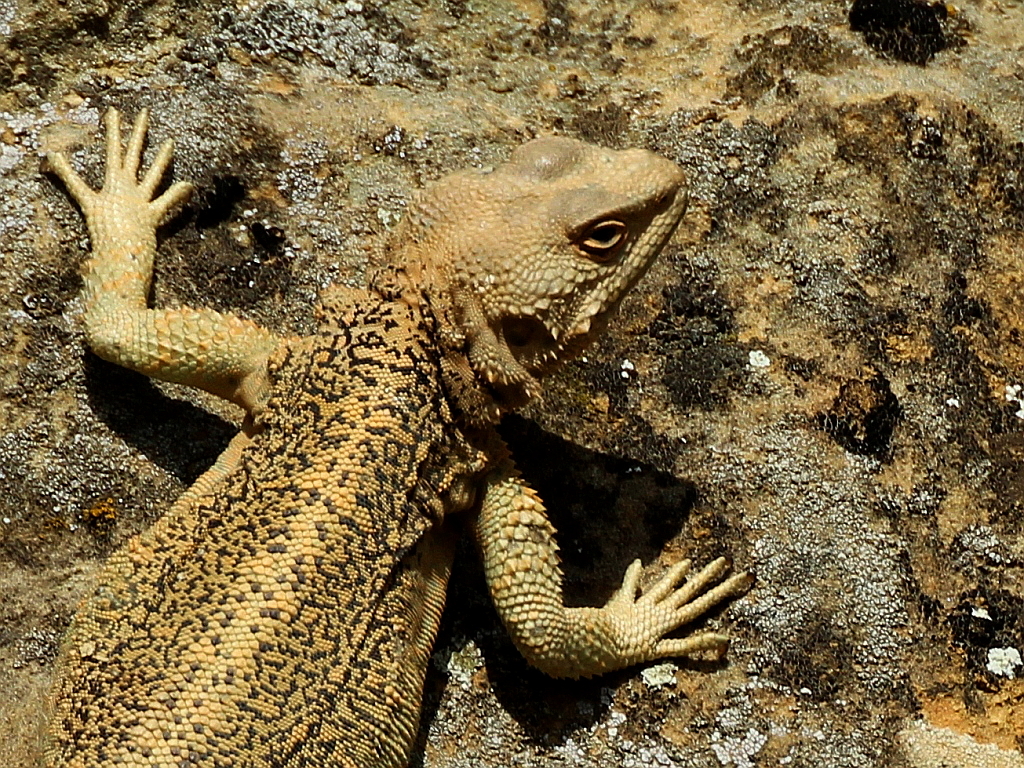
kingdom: Animalia
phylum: Chordata
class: Squamata
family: Agamidae
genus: Paralaudakia
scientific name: Paralaudakia caucasia
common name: Caucasian agama
